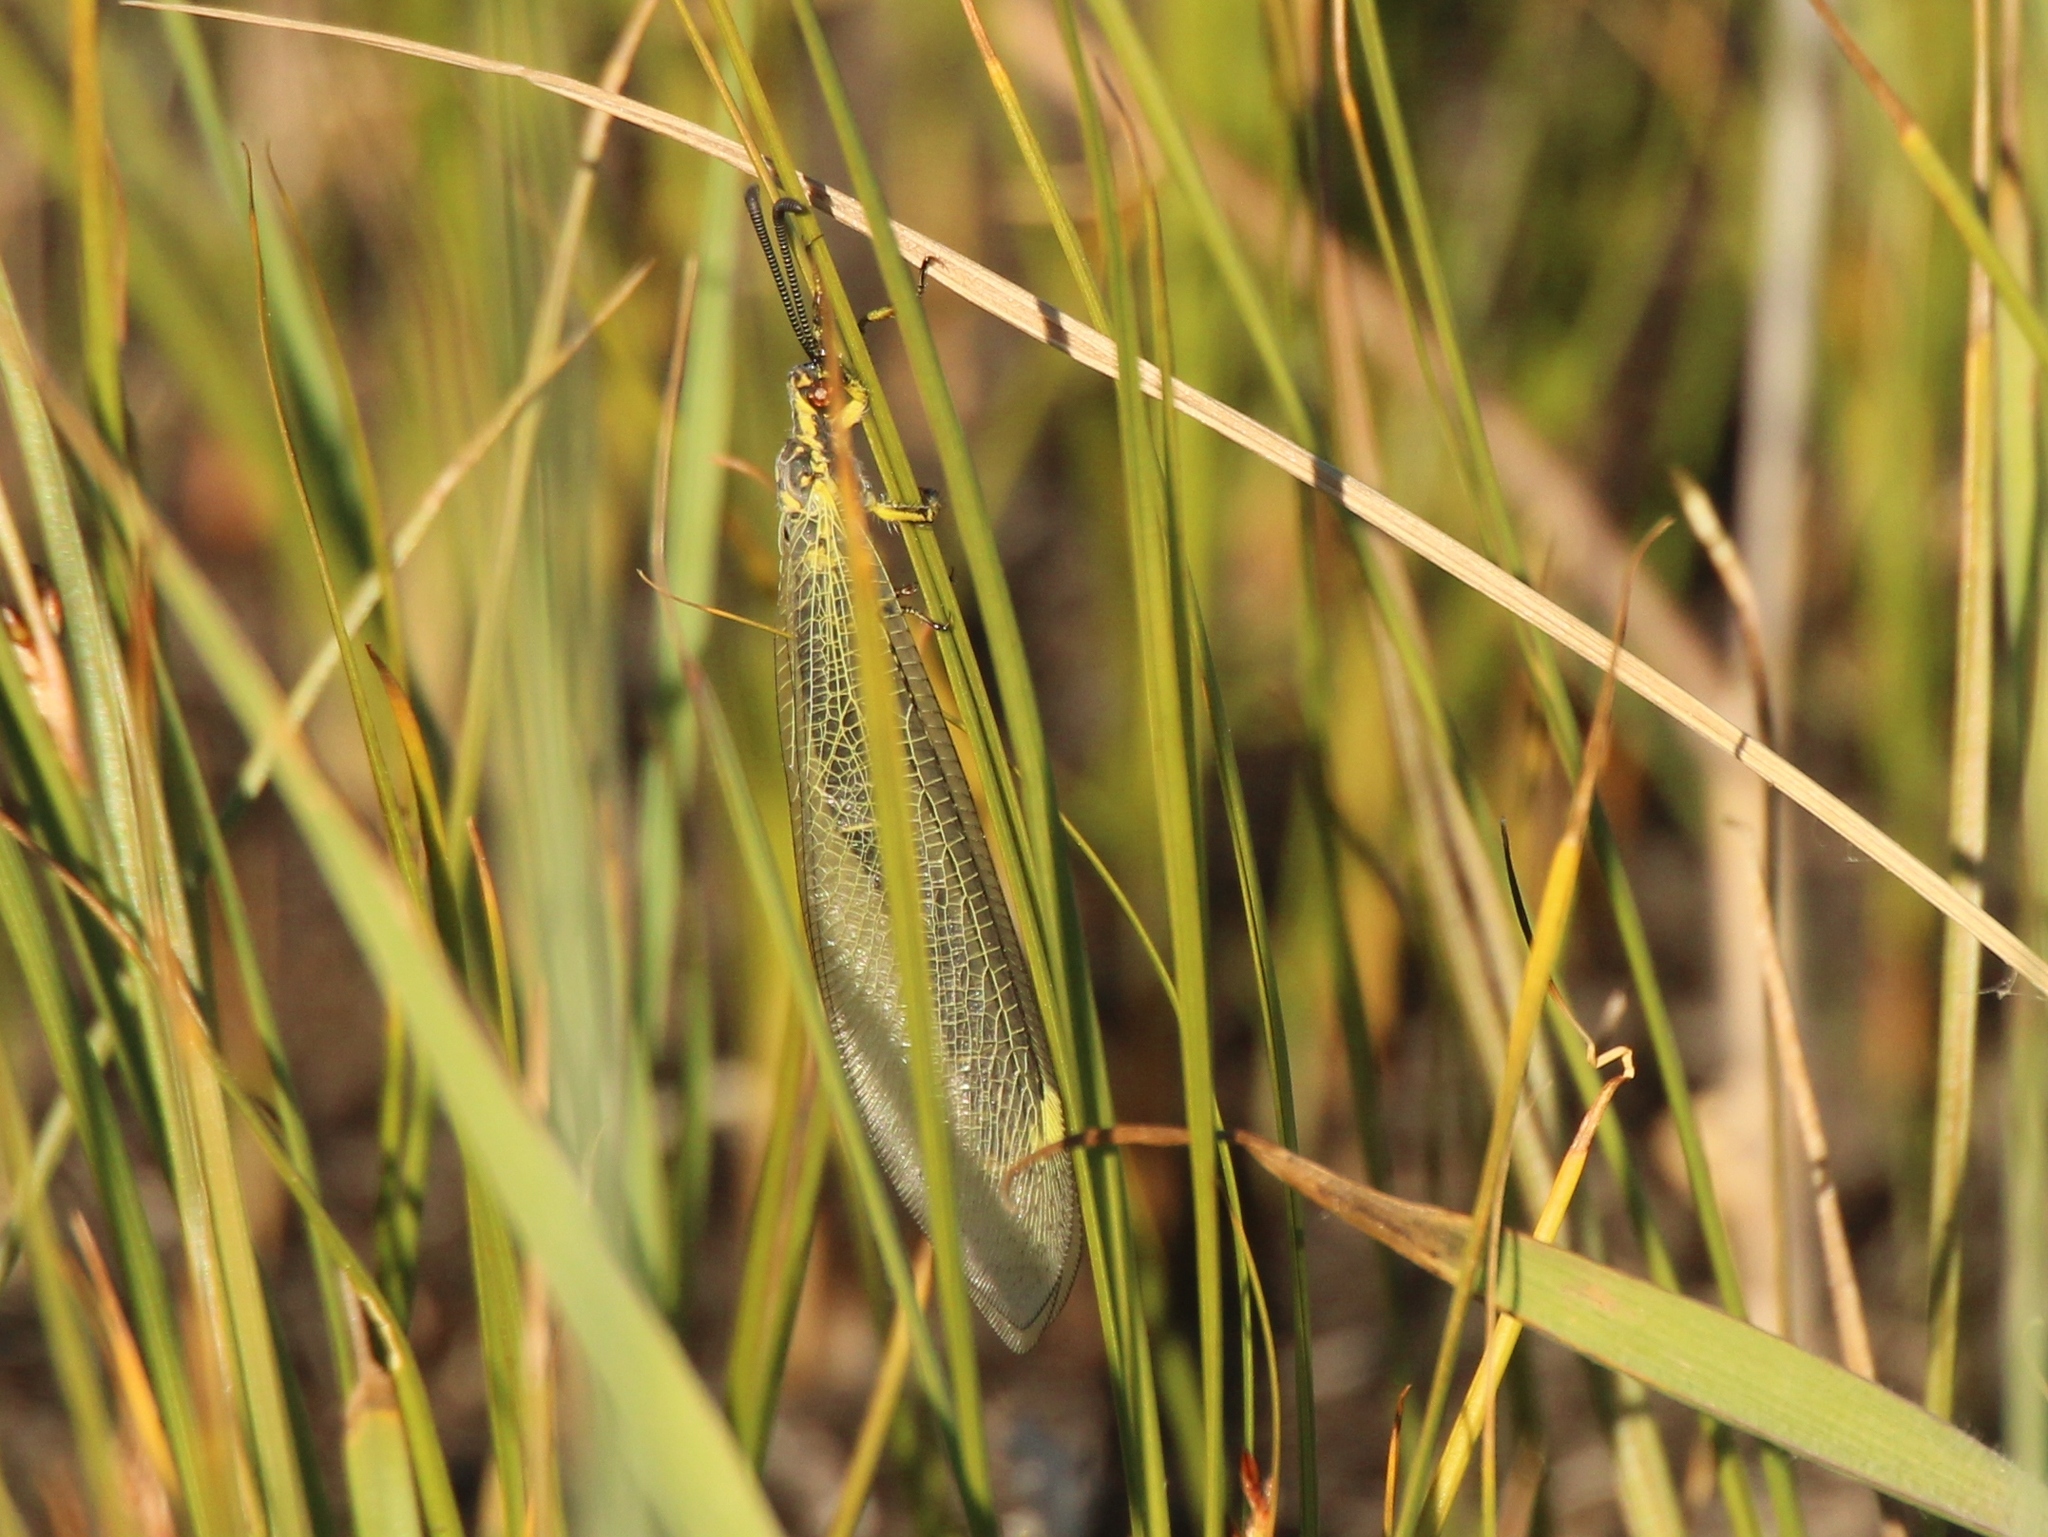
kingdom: Animalia
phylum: Arthropoda
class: Insecta
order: Neuroptera
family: Myrmeleontidae
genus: Deutoleon
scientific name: Deutoleon lineatus
